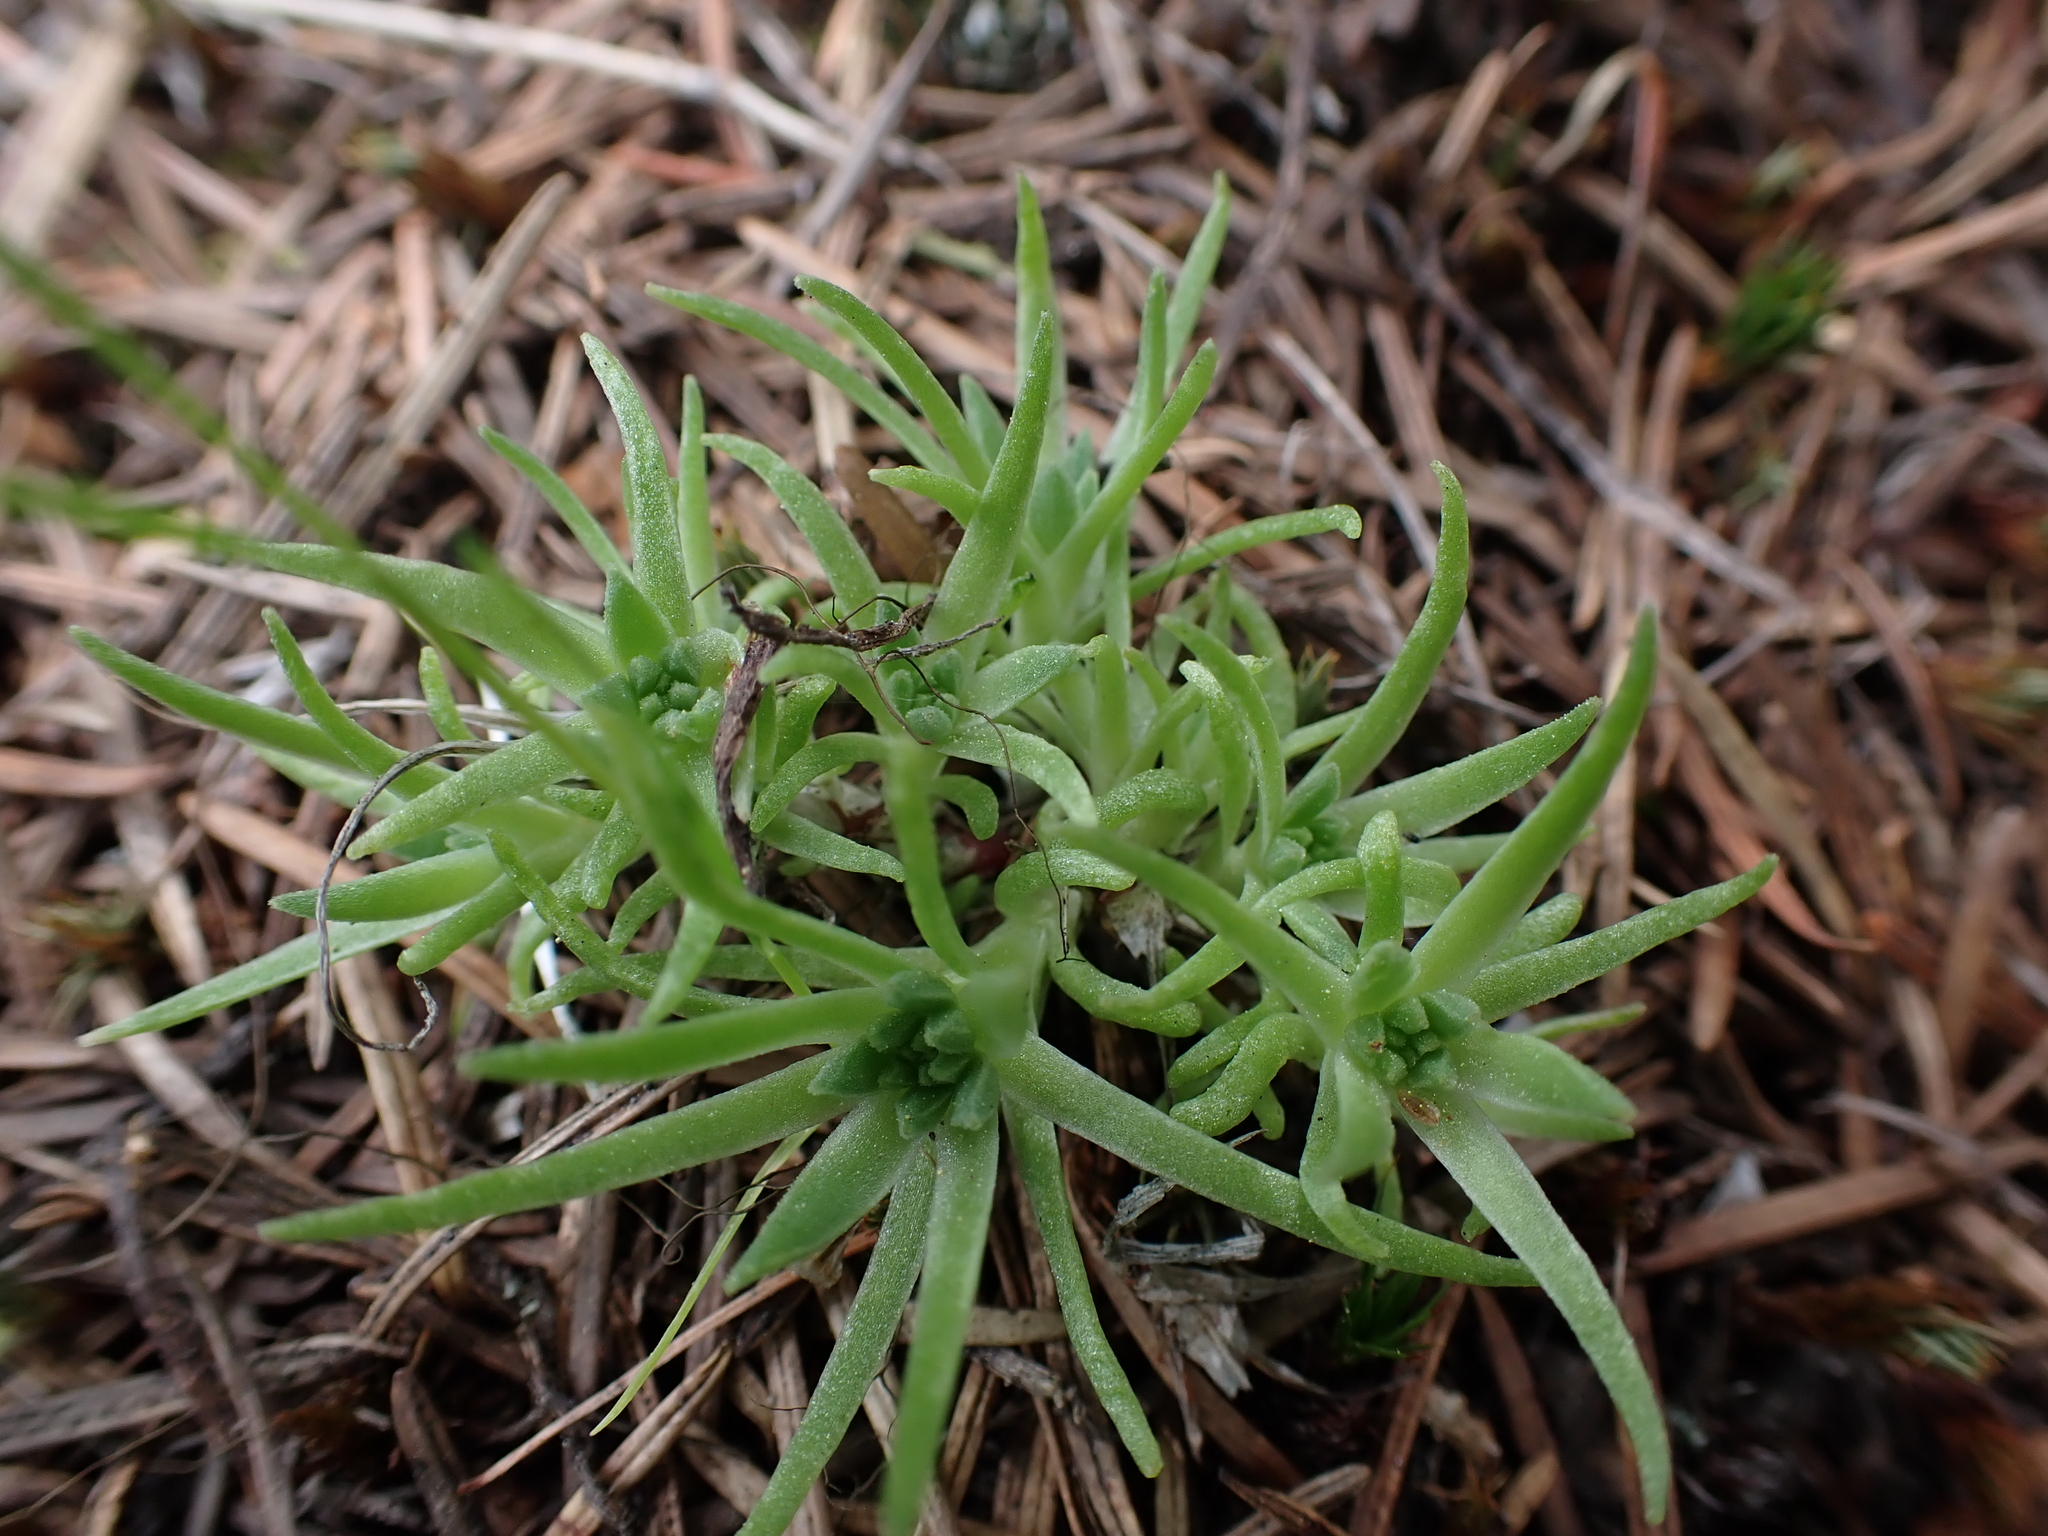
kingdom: Plantae
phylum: Tracheophyta
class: Magnoliopsida
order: Saxifragales
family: Crassulaceae
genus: Sedum
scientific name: Sedum stenopetalum
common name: Narrow-petaled stonecrop
